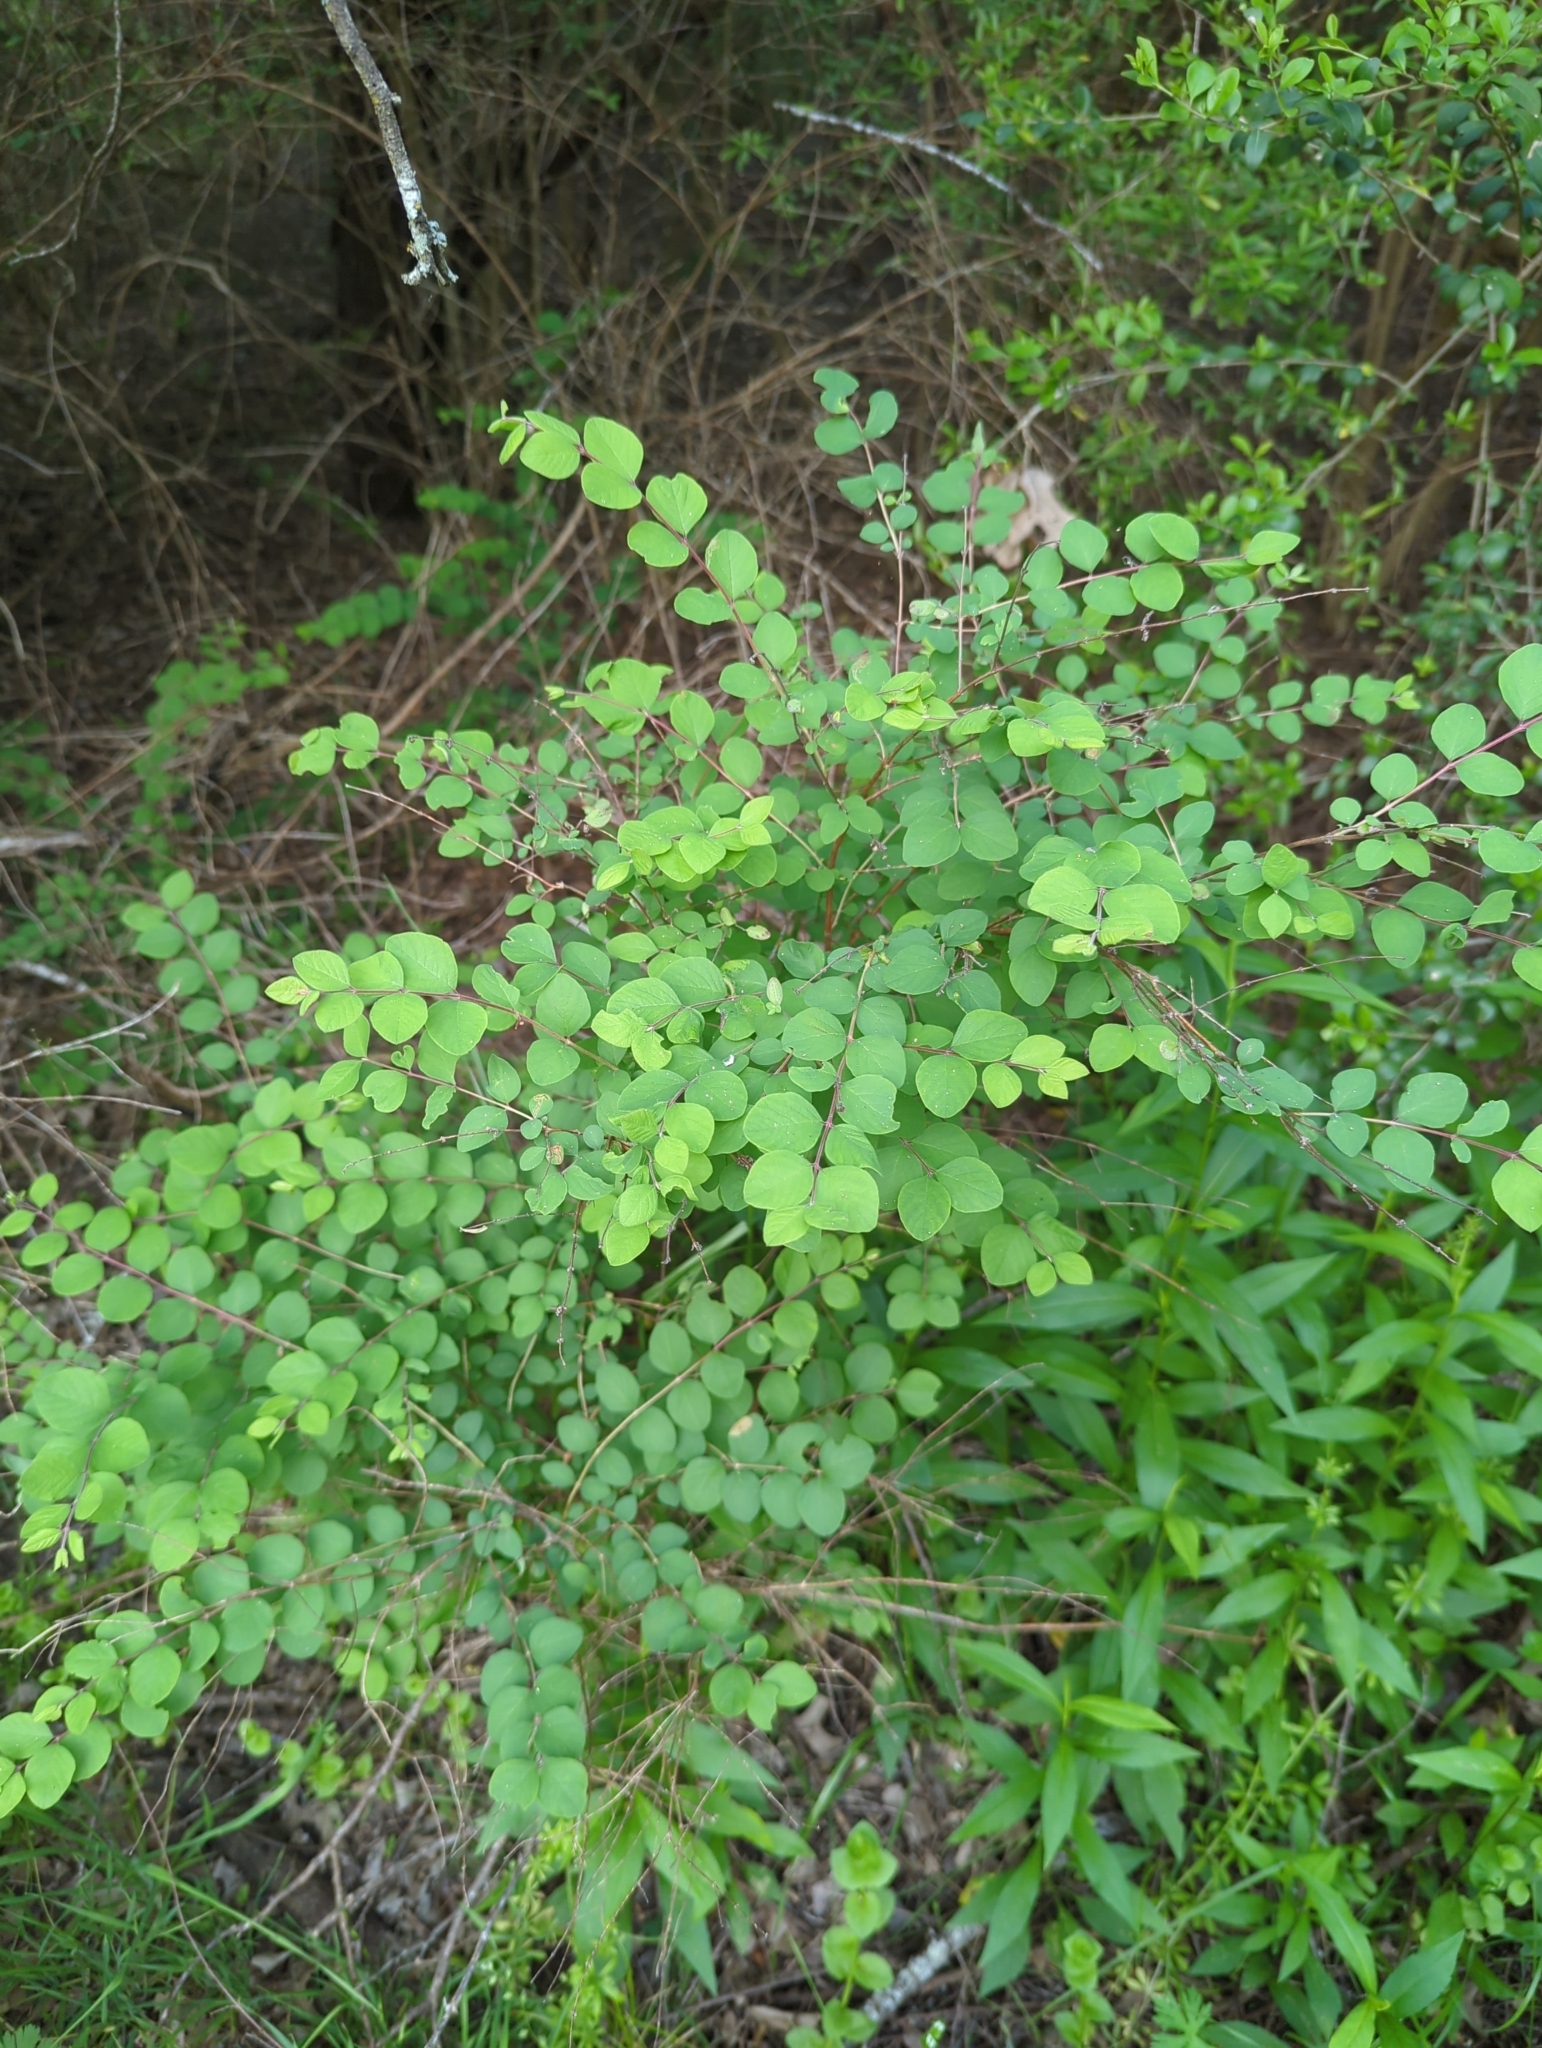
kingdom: Plantae
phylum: Tracheophyta
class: Magnoliopsida
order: Dipsacales
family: Caprifoliaceae
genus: Symphoricarpos
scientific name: Symphoricarpos orbiculatus
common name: Coralberry
